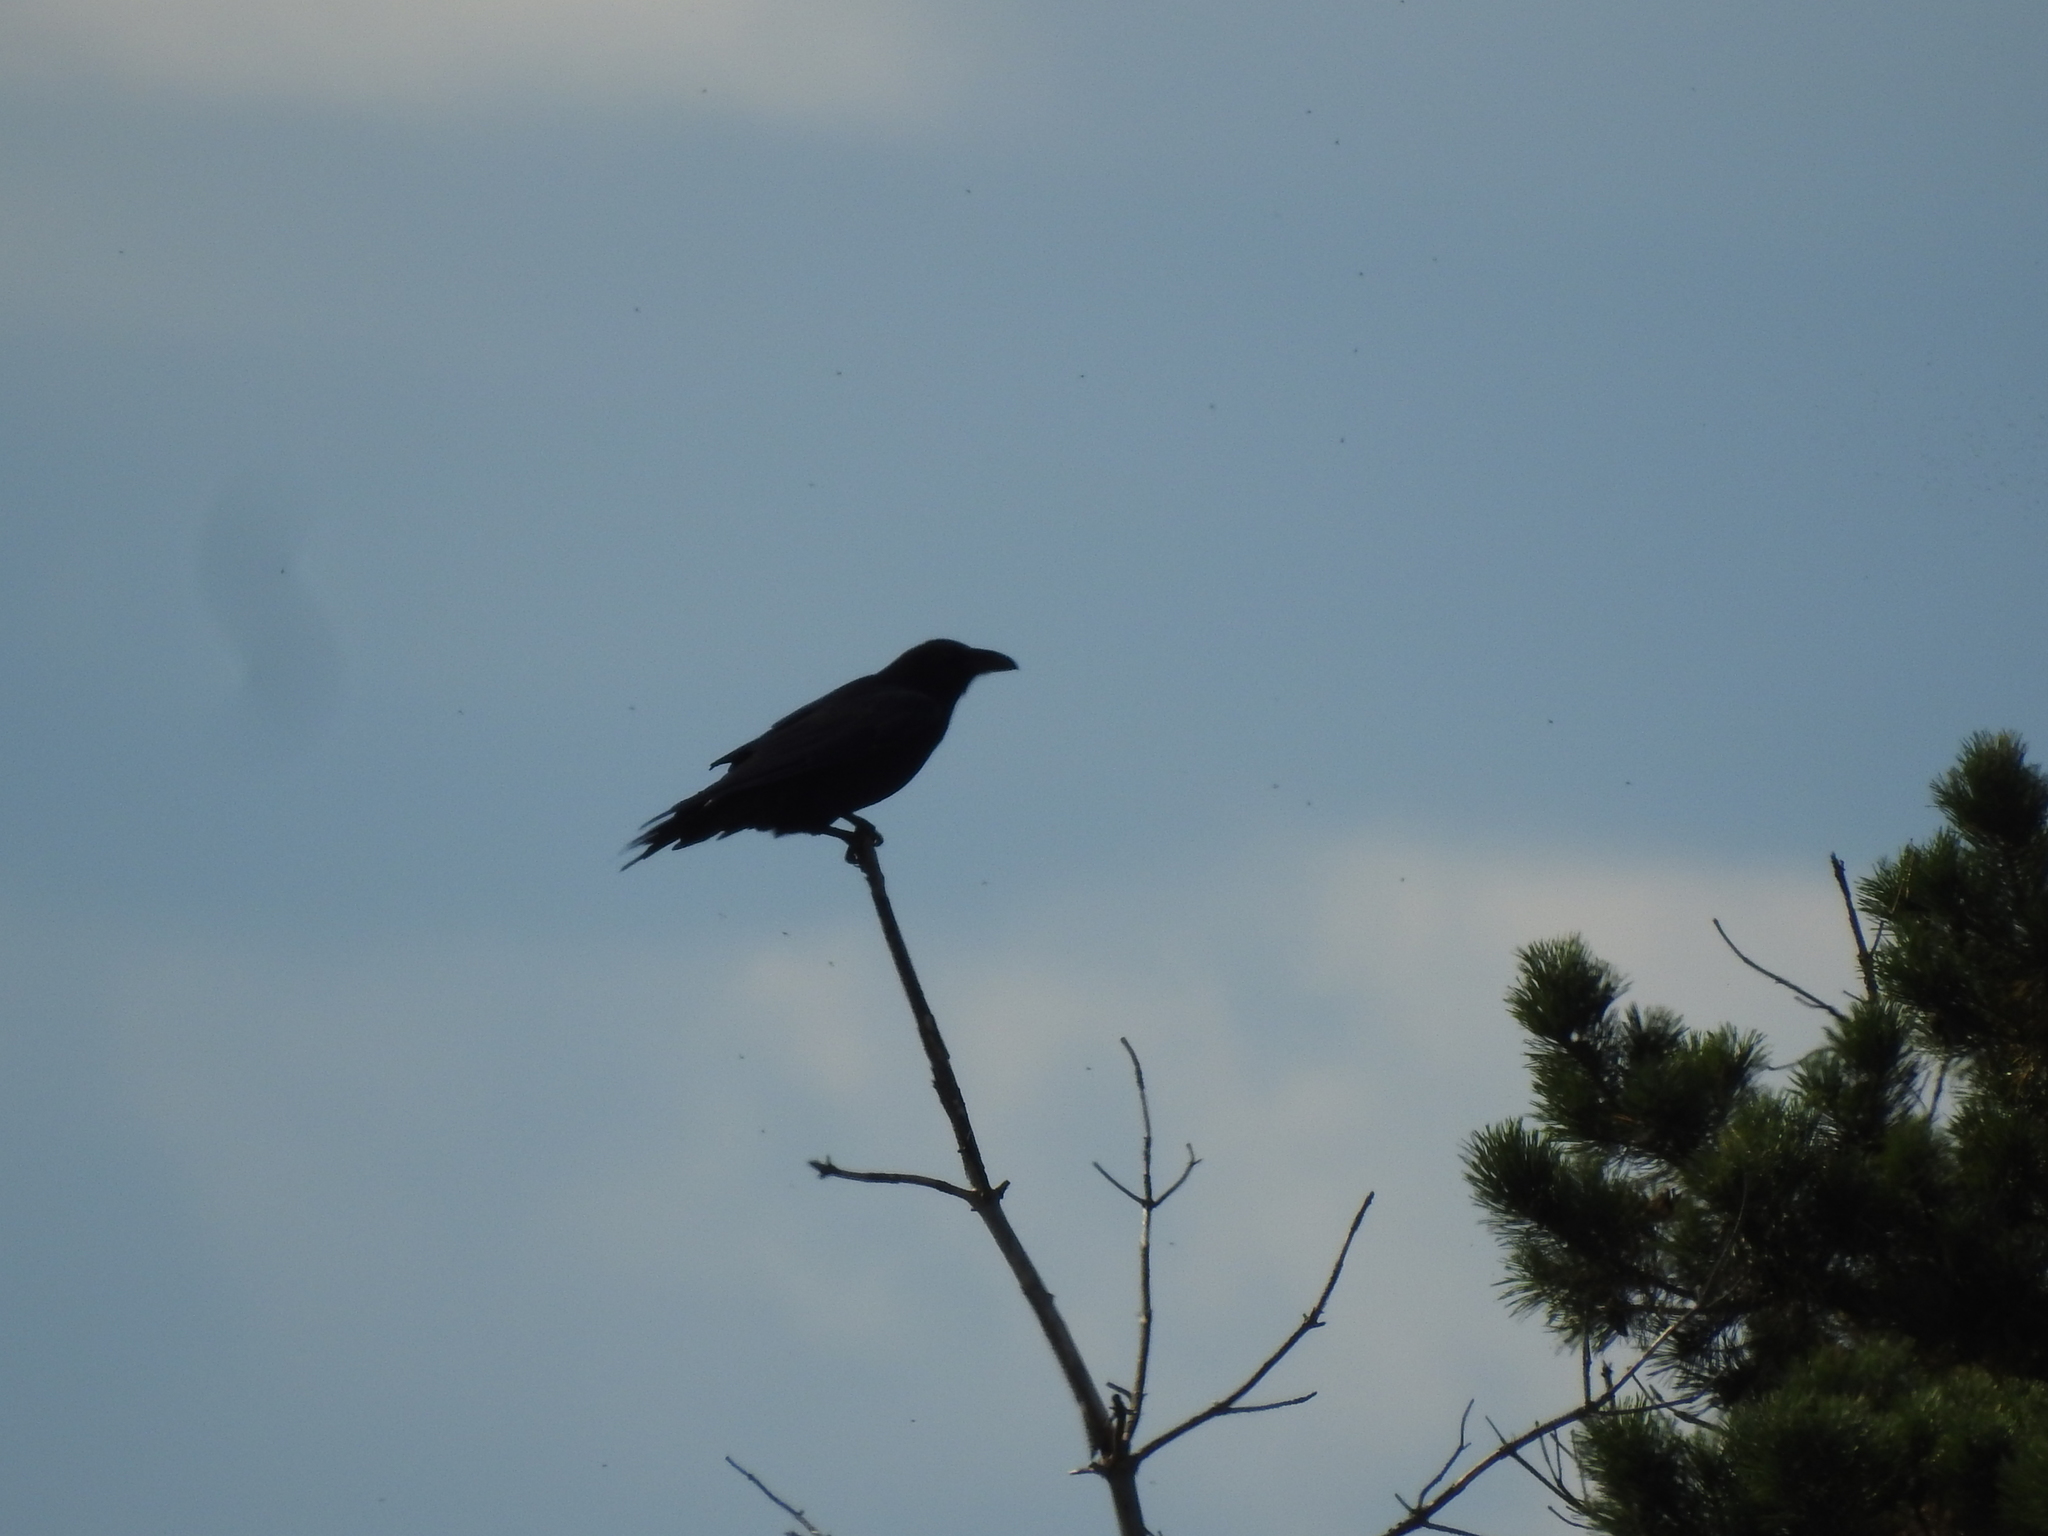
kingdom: Animalia
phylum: Chordata
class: Aves
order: Passeriformes
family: Corvidae
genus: Corvus
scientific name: Corvus corax
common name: Common raven
